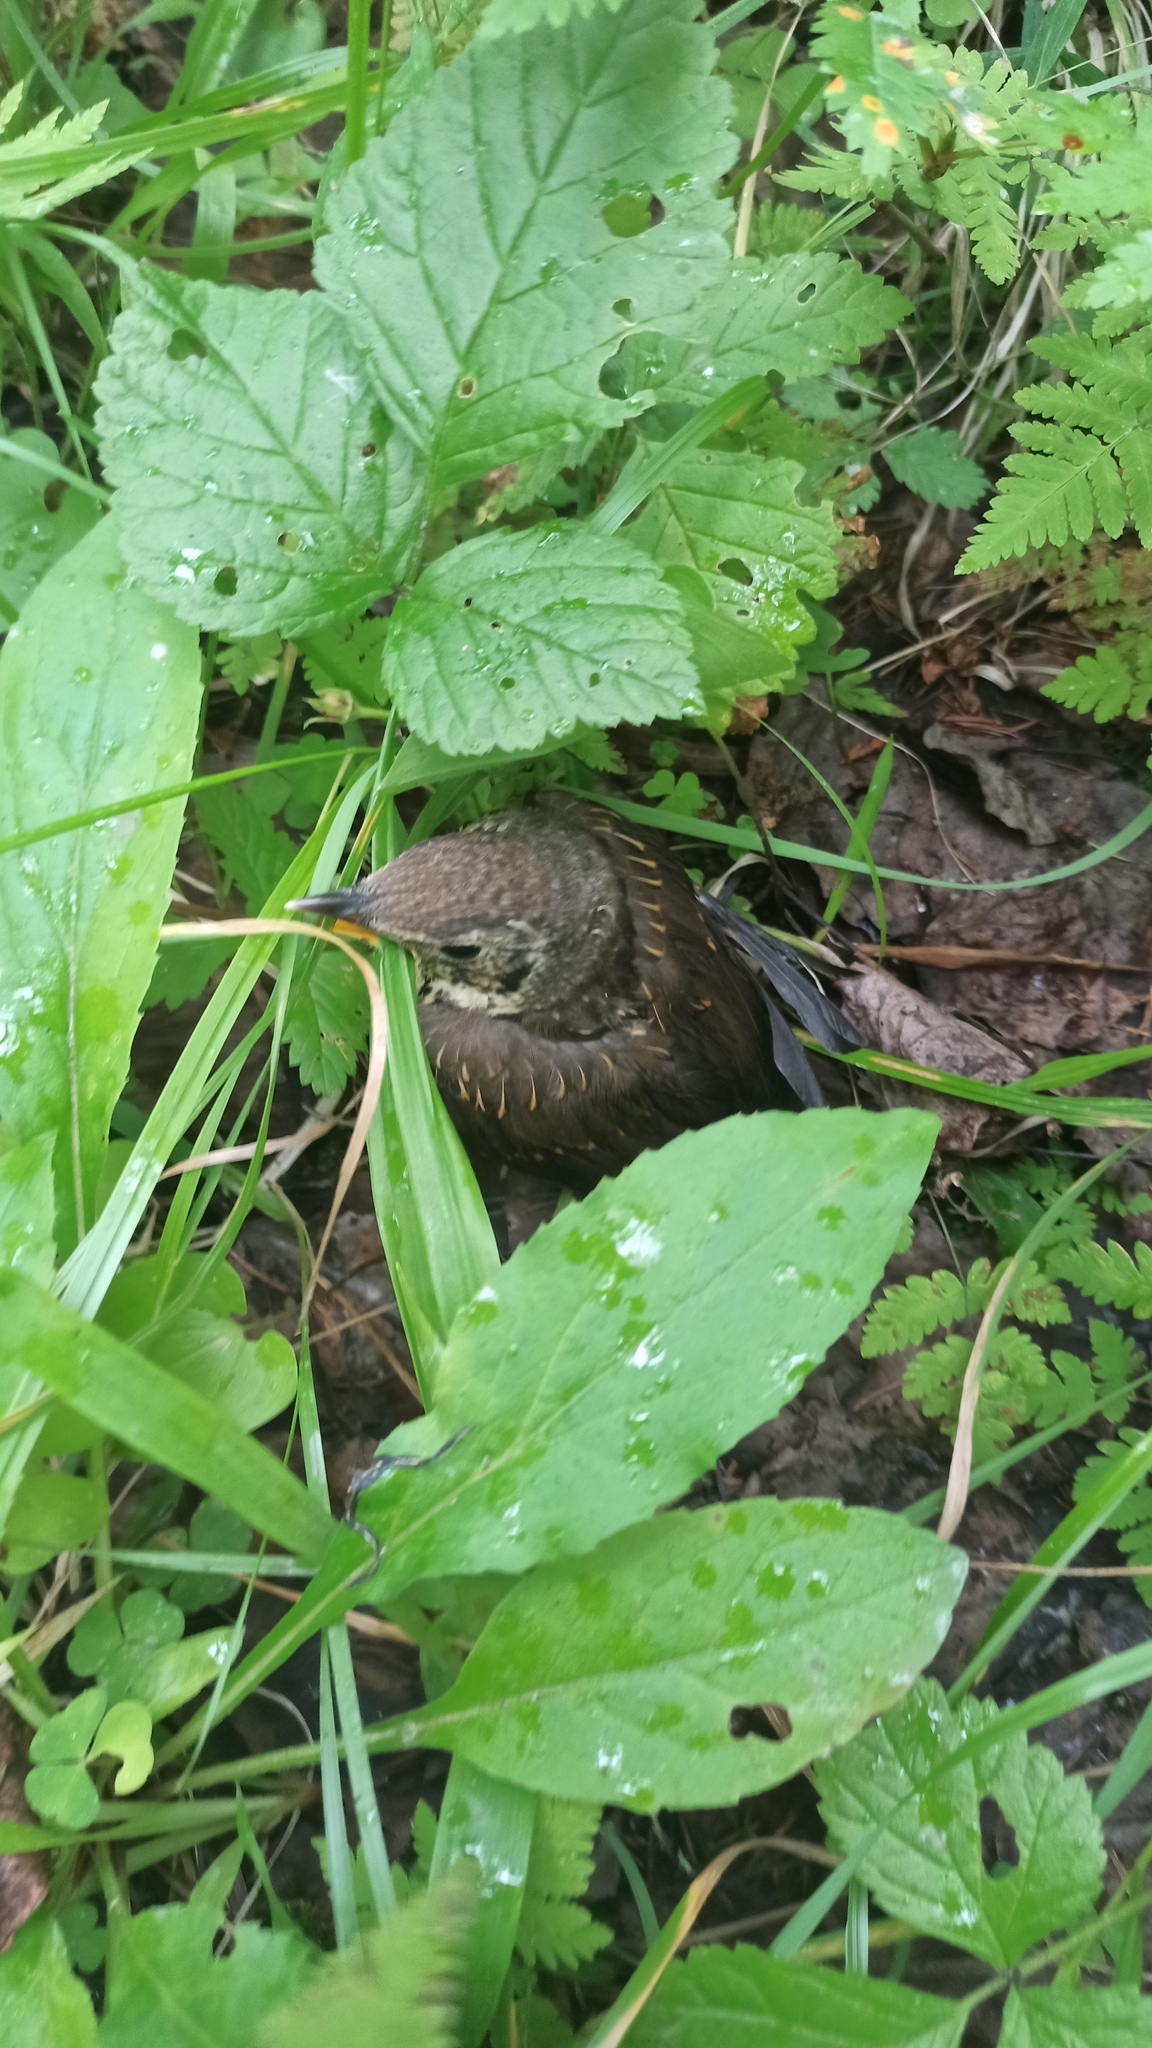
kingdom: Animalia
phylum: Chordata
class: Aves
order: Passeriformes
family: Turdidae
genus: Turdus
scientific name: Turdus iliacus
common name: Redwing
